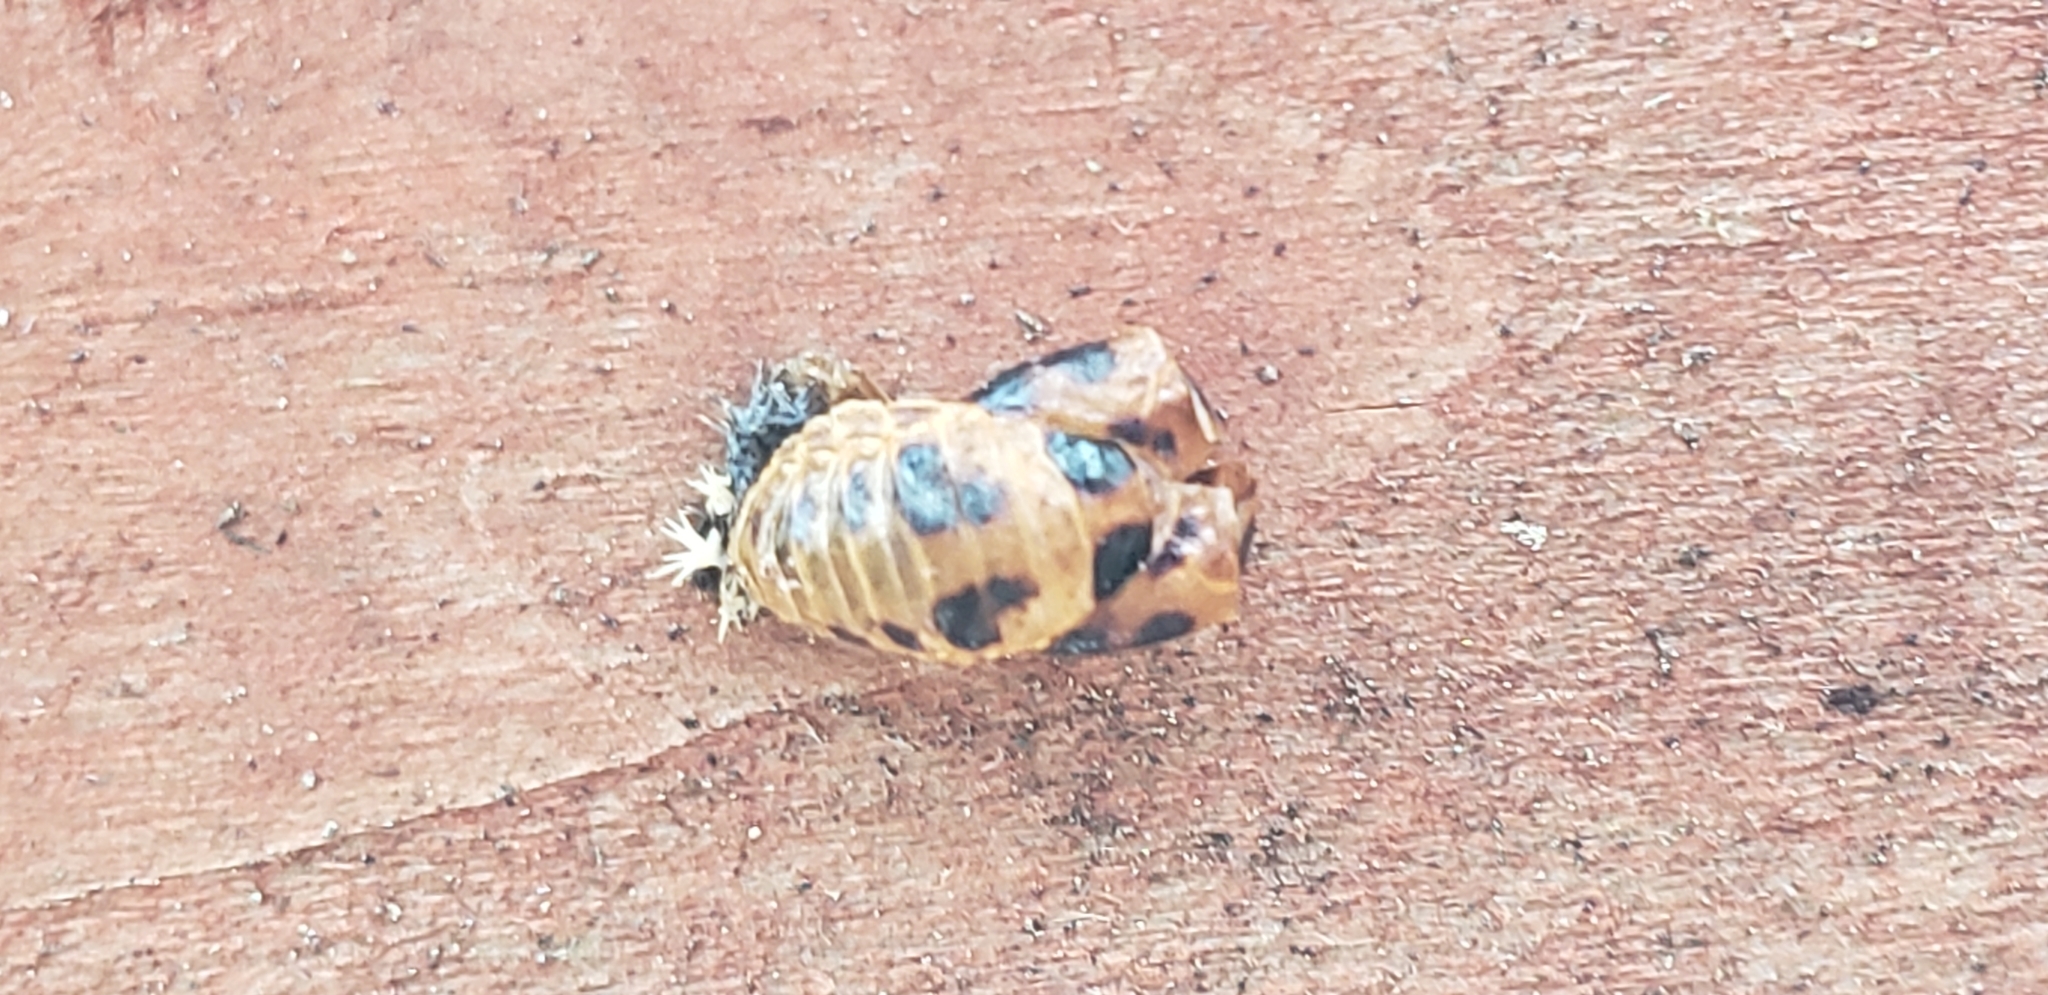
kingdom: Animalia
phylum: Arthropoda
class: Insecta
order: Coleoptera
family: Coccinellidae
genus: Harmonia
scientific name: Harmonia axyridis
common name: Harlequin ladybird
